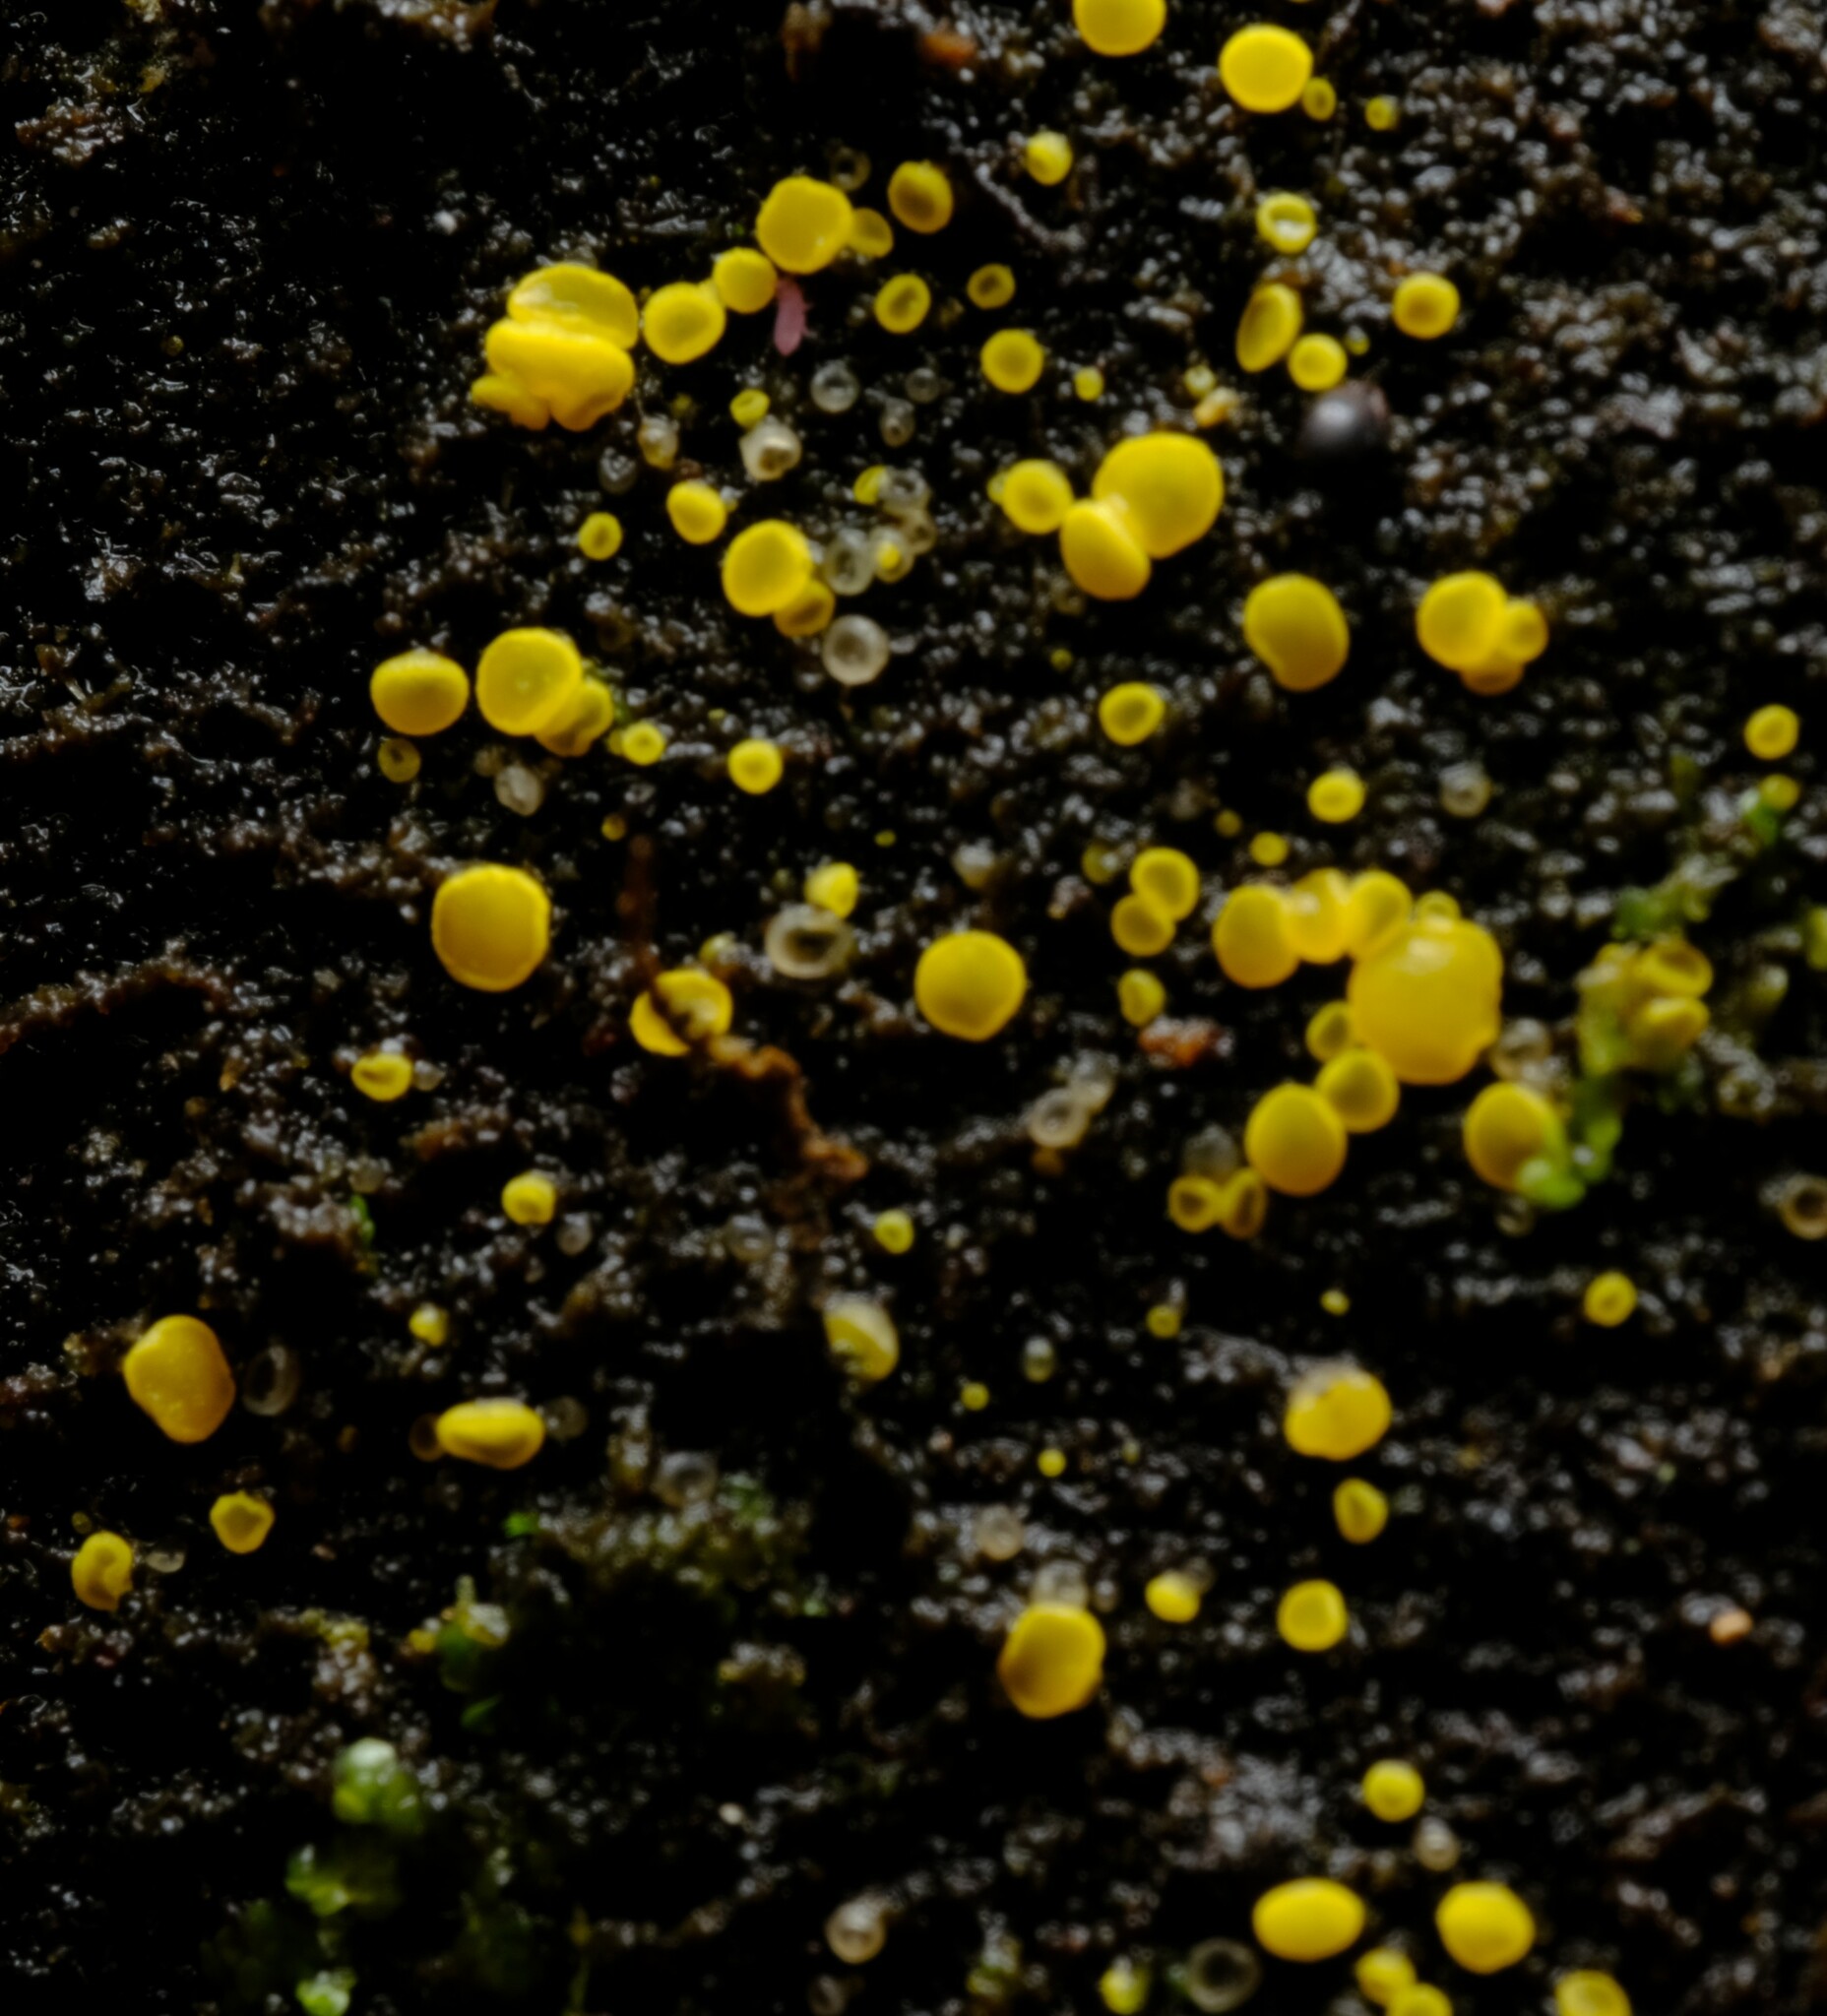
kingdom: Fungi
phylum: Ascomycota
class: Leotiomycetes
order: Helotiales
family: Pezizellaceae
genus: Calycina
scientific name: Calycina claroflava
